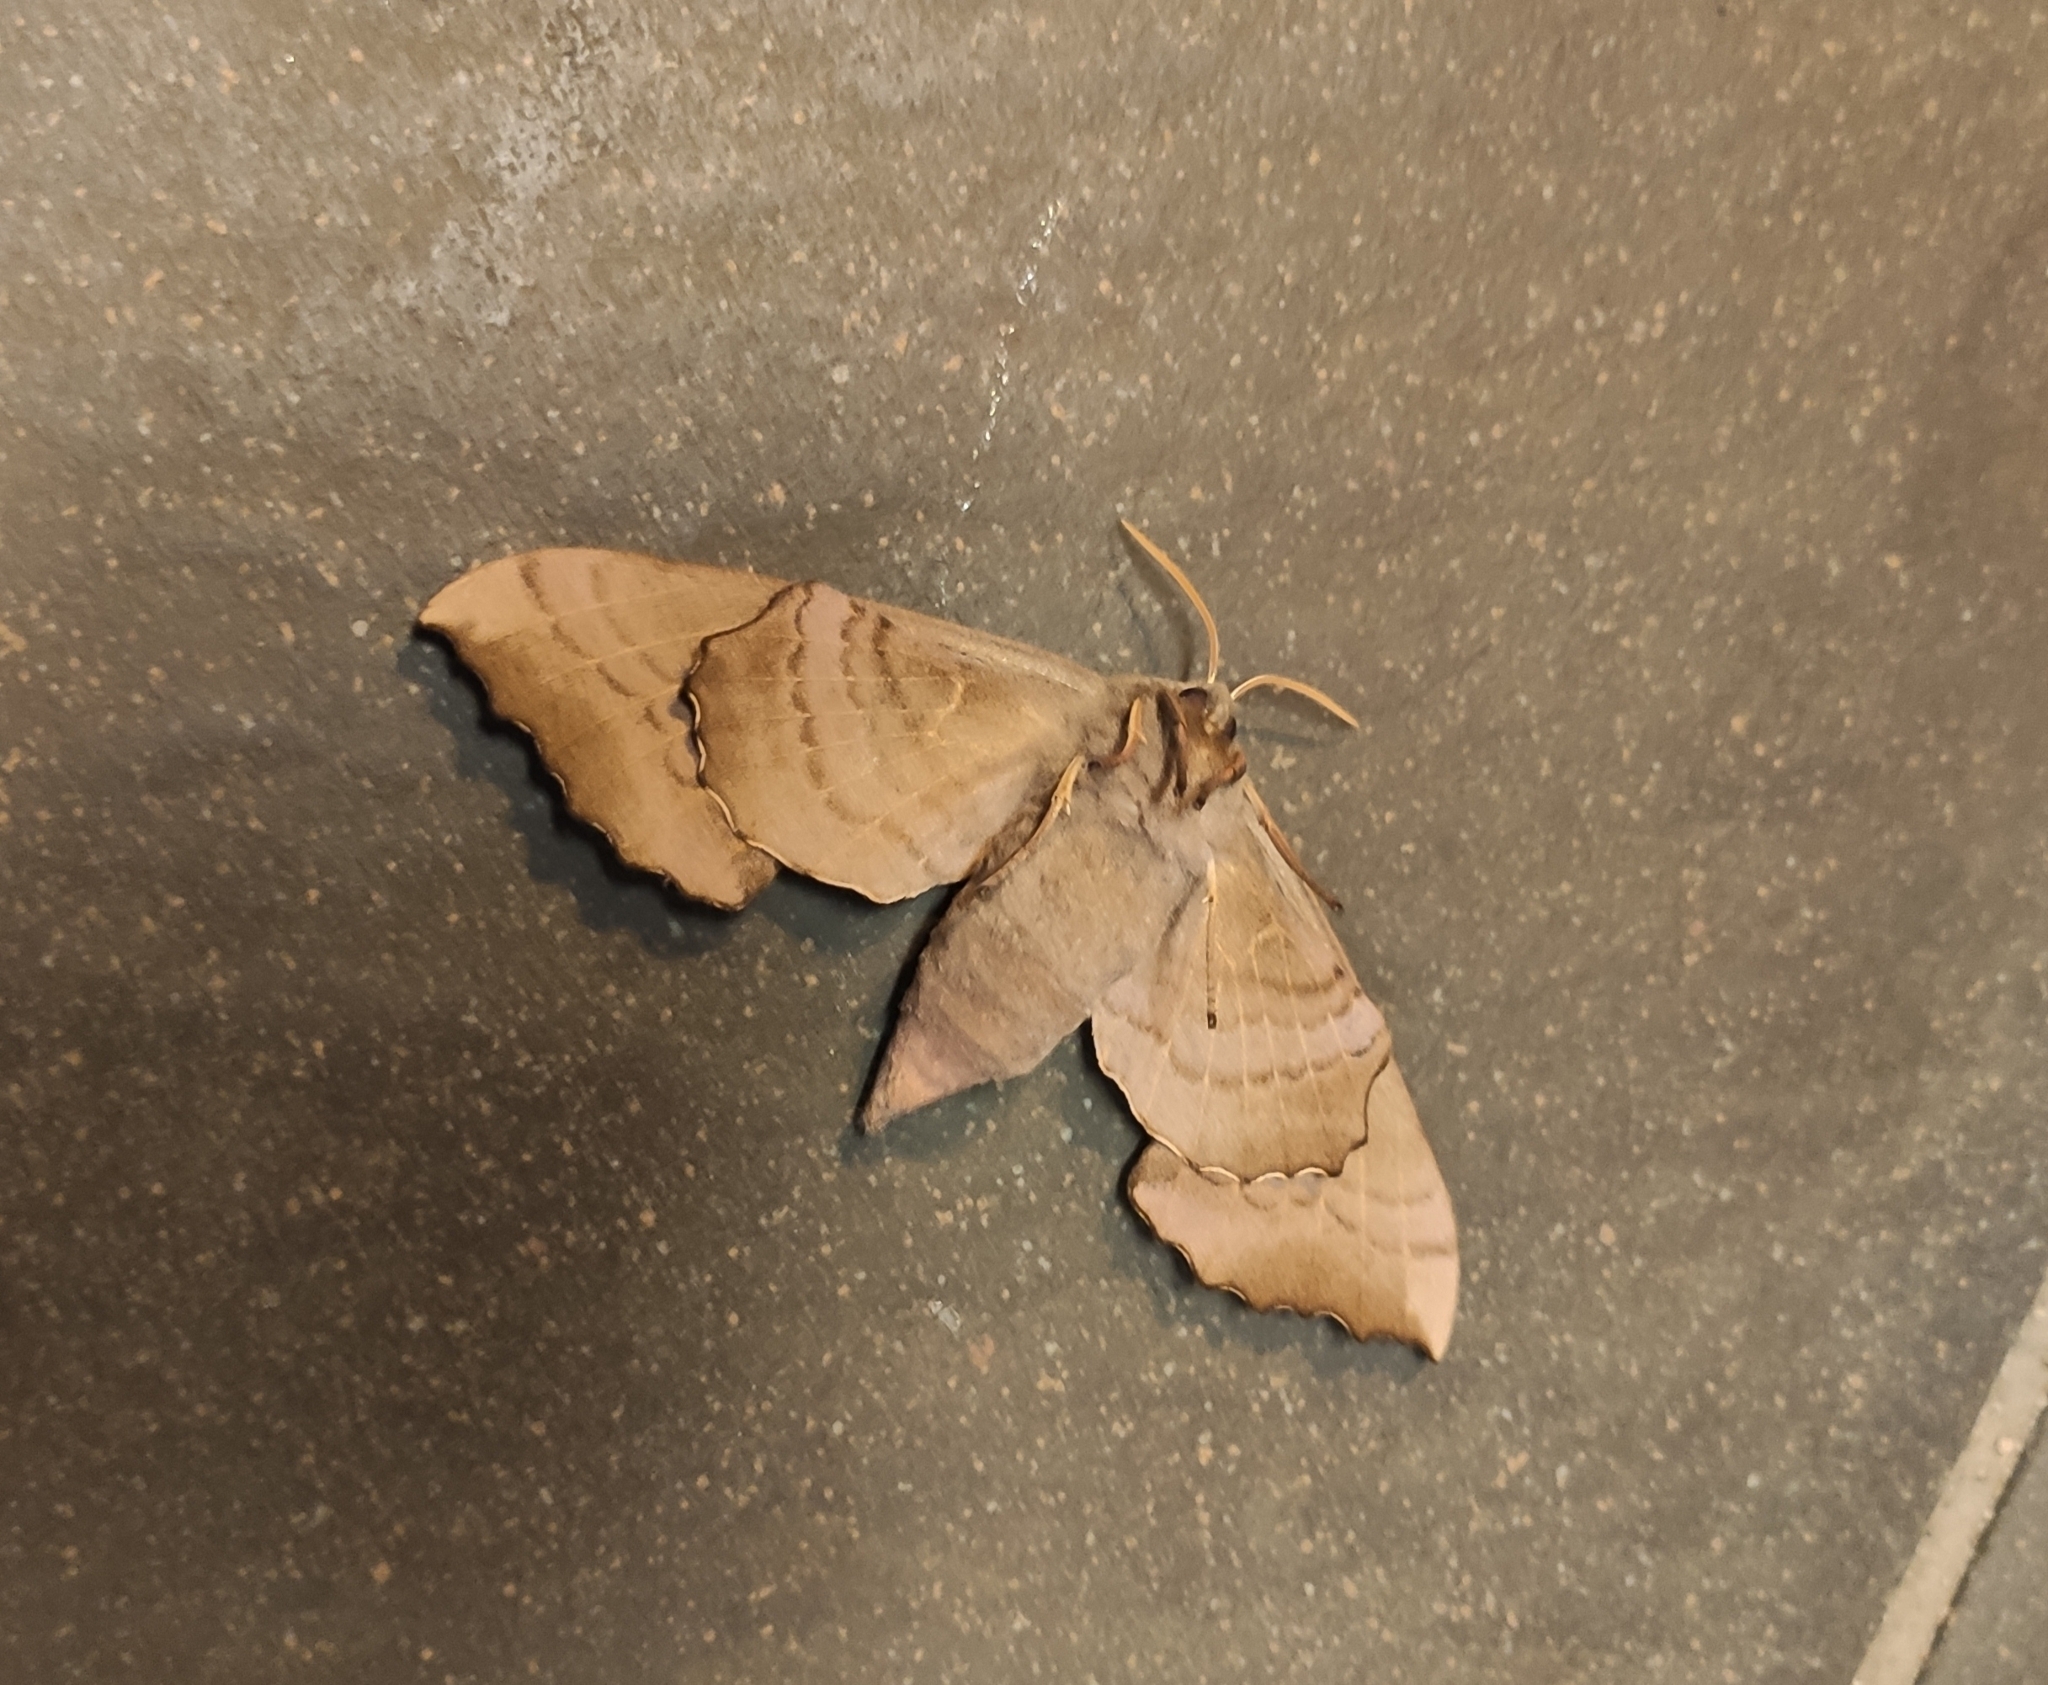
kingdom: Animalia
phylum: Arthropoda
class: Insecta
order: Lepidoptera
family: Sphingidae
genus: Laothoe
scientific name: Laothoe populi
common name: Poplar hawk-moth
